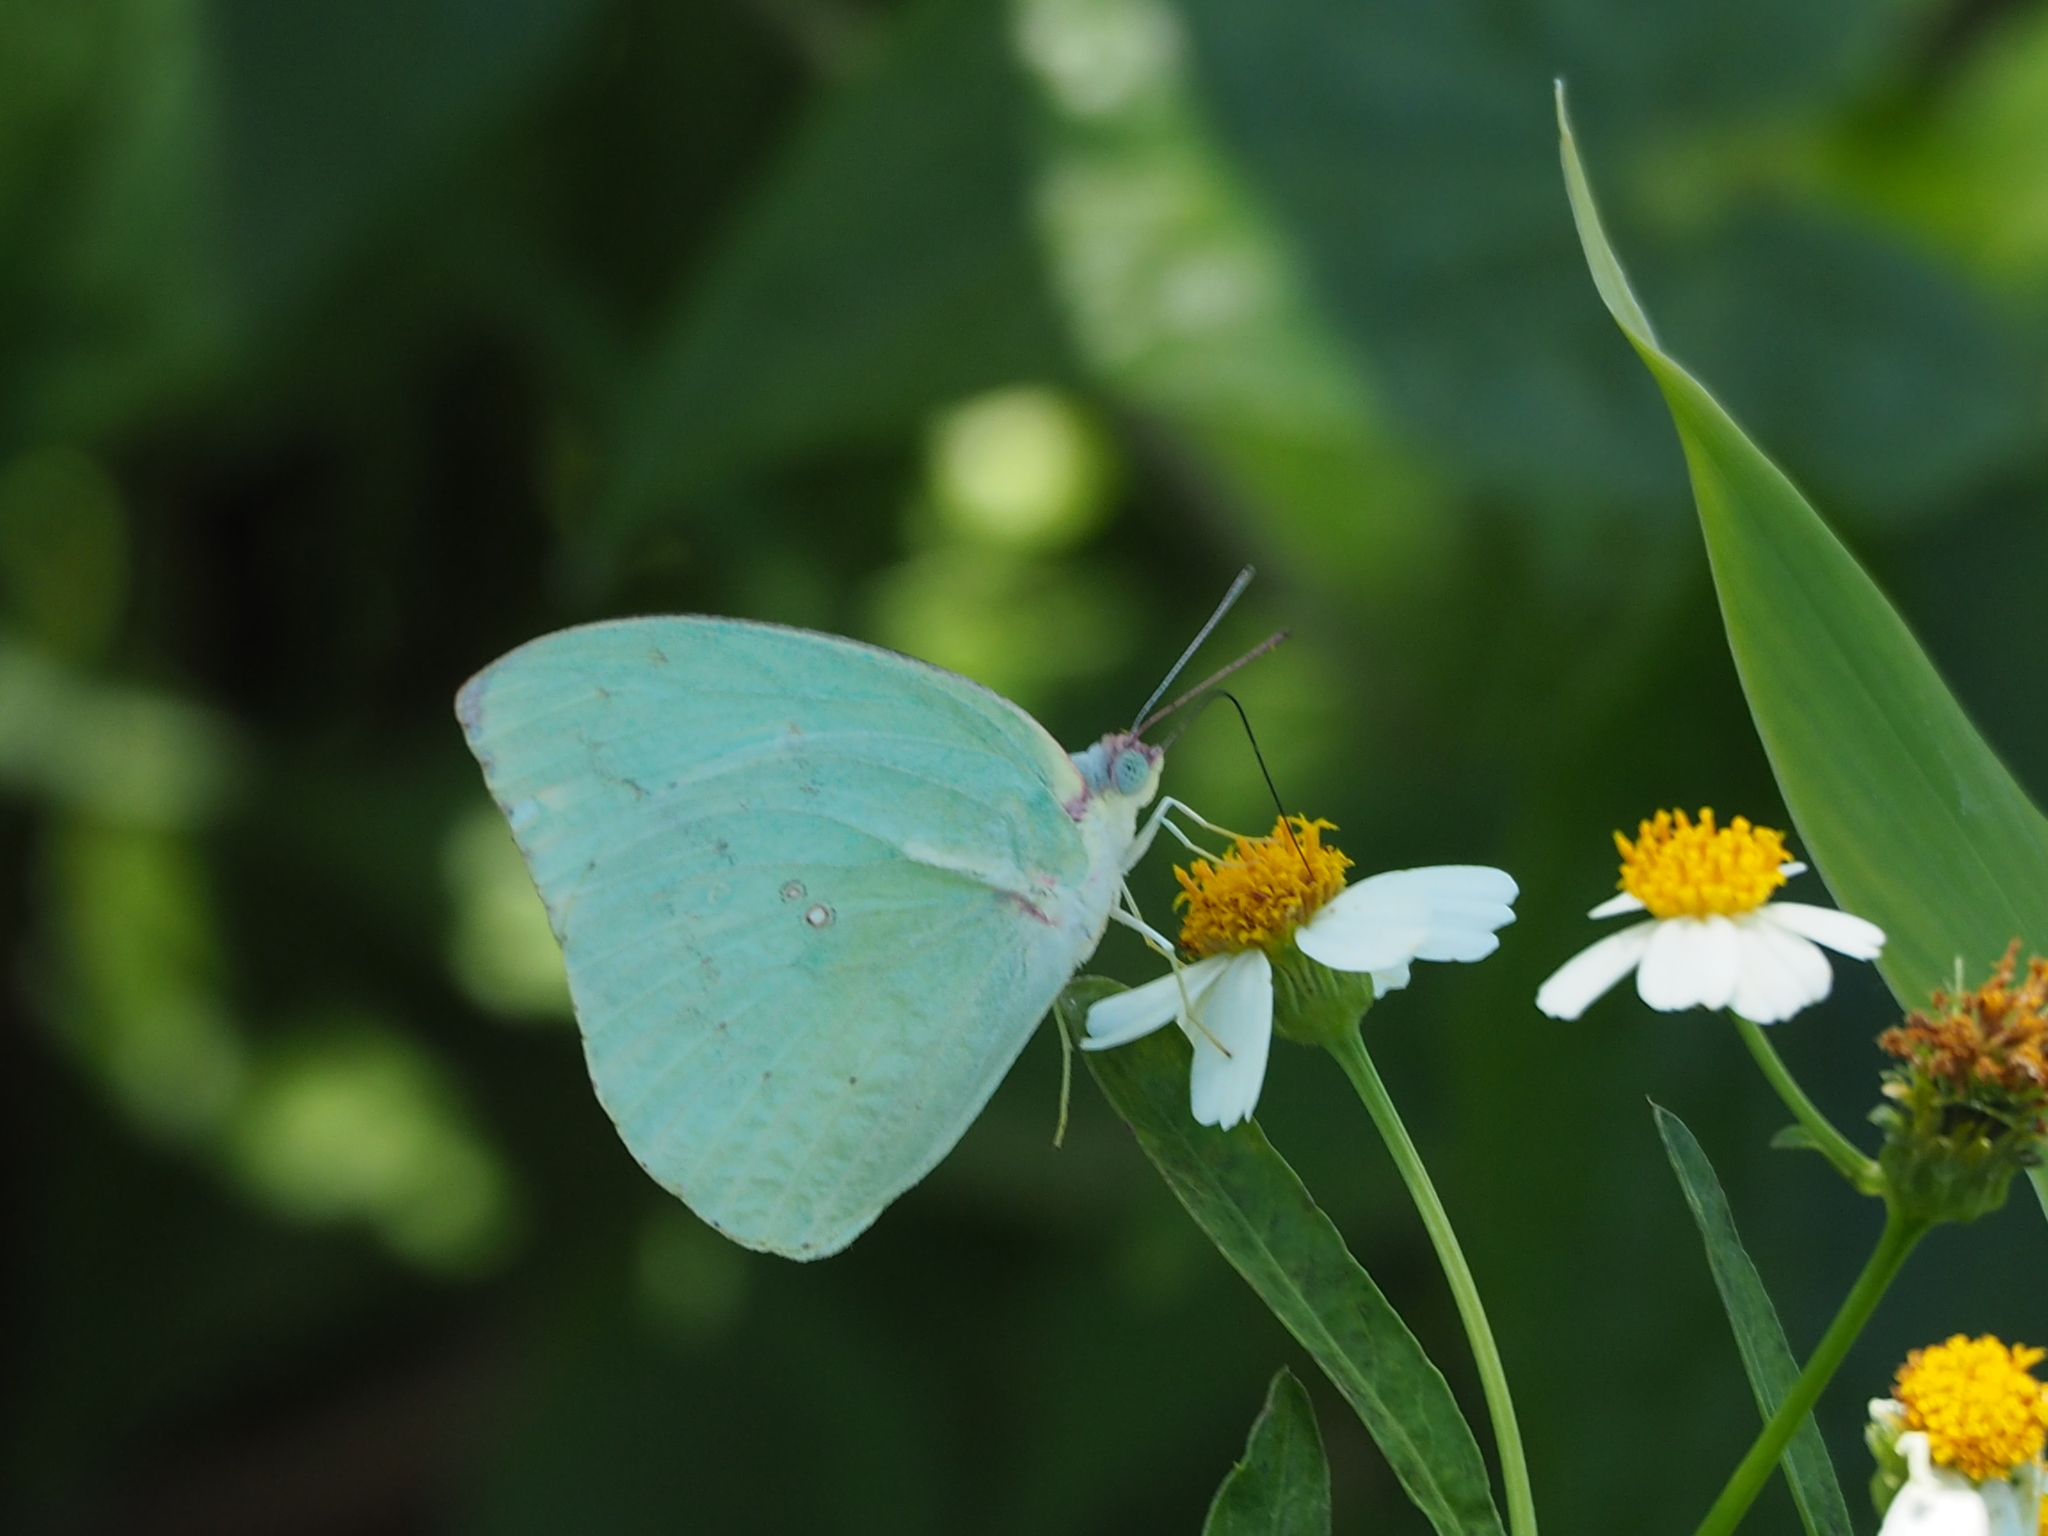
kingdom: Animalia
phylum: Arthropoda
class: Insecta
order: Lepidoptera
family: Pieridae
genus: Catopsilia
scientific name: Catopsilia pomona
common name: Common emigrant
